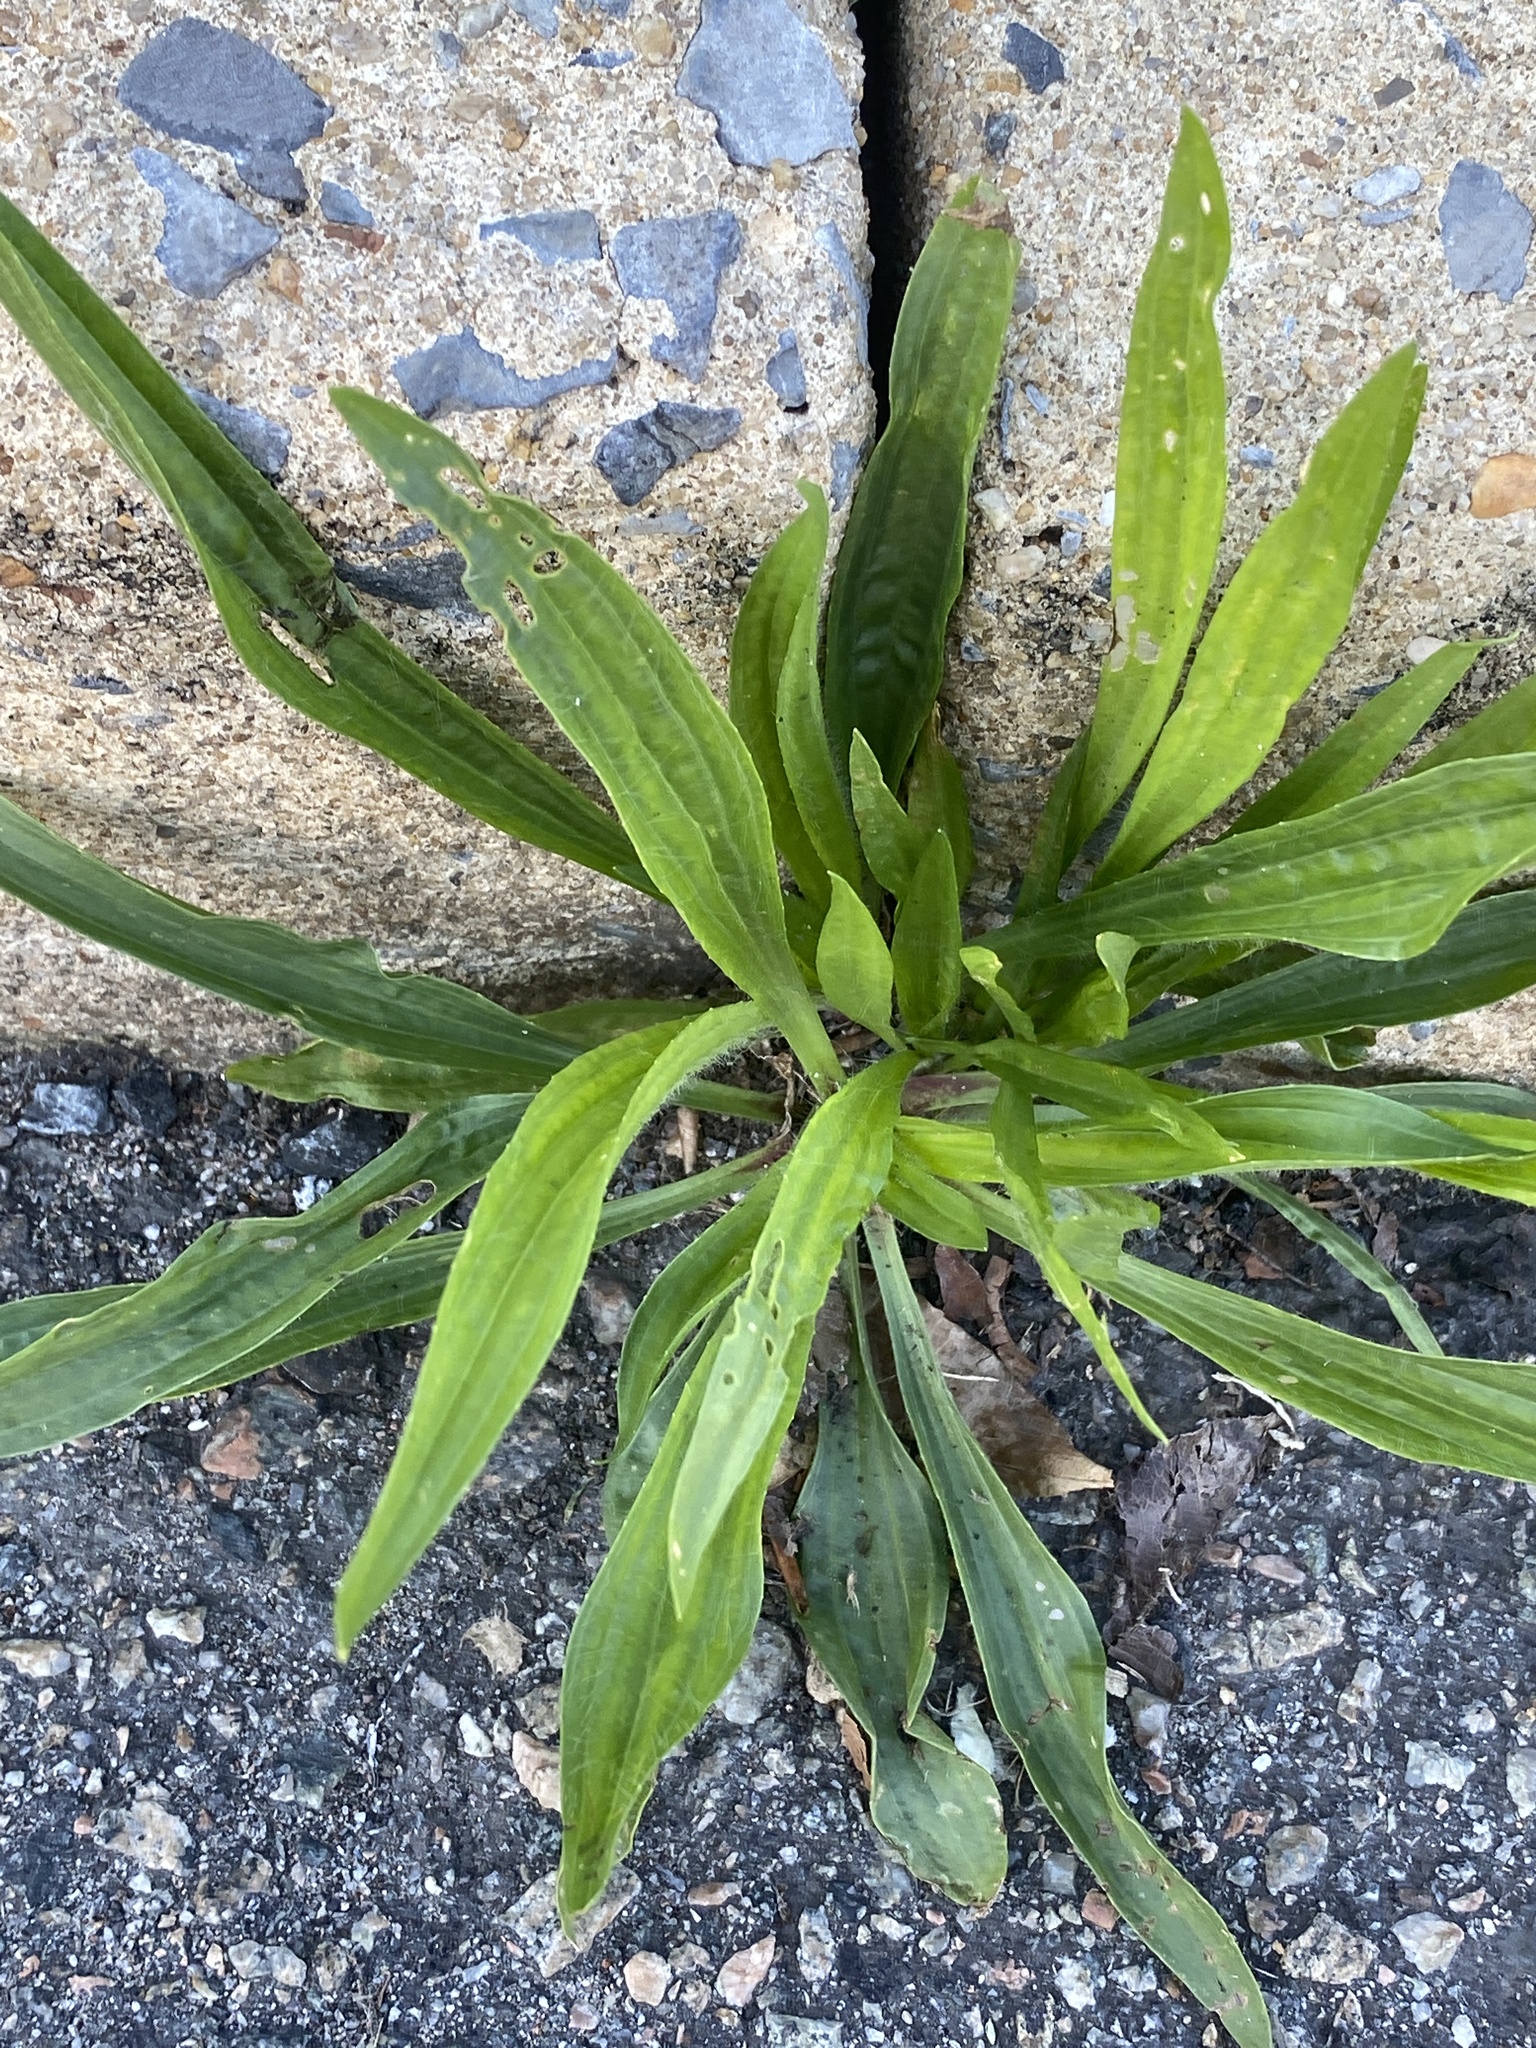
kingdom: Plantae
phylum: Tracheophyta
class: Magnoliopsida
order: Lamiales
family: Plantaginaceae
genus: Plantago
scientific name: Plantago lanceolata
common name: Ribwort plantain
